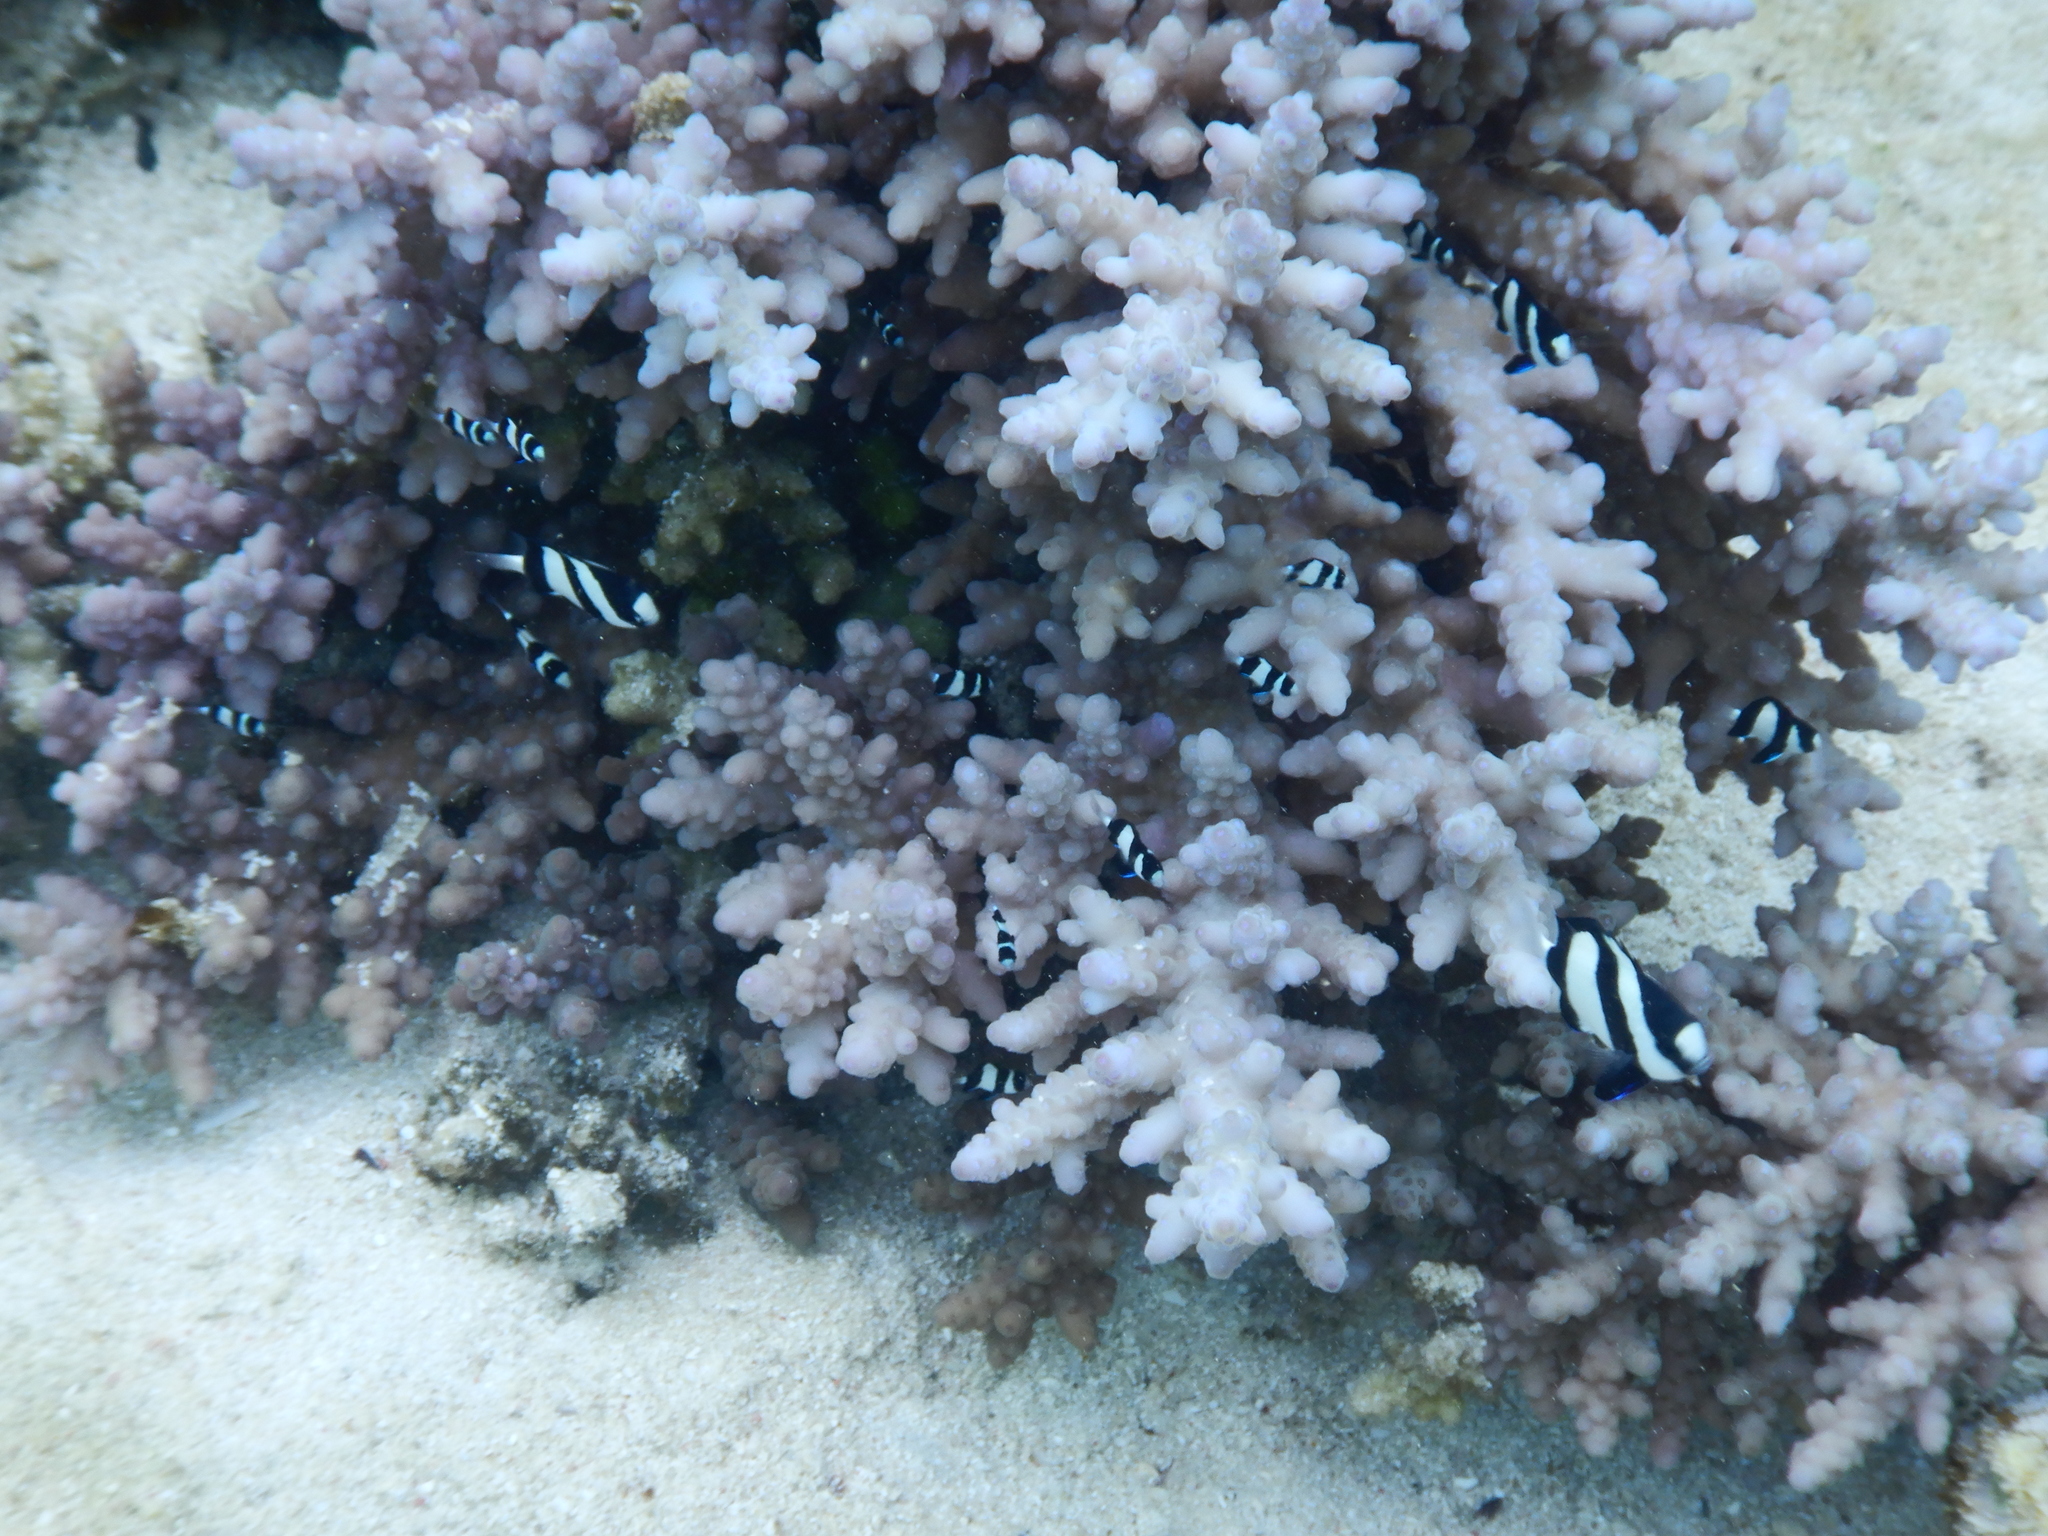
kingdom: Animalia
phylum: Chordata
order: Perciformes
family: Pomacentridae
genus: Dascyllus
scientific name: Dascyllus aruanus
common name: Humbug dascyllus
